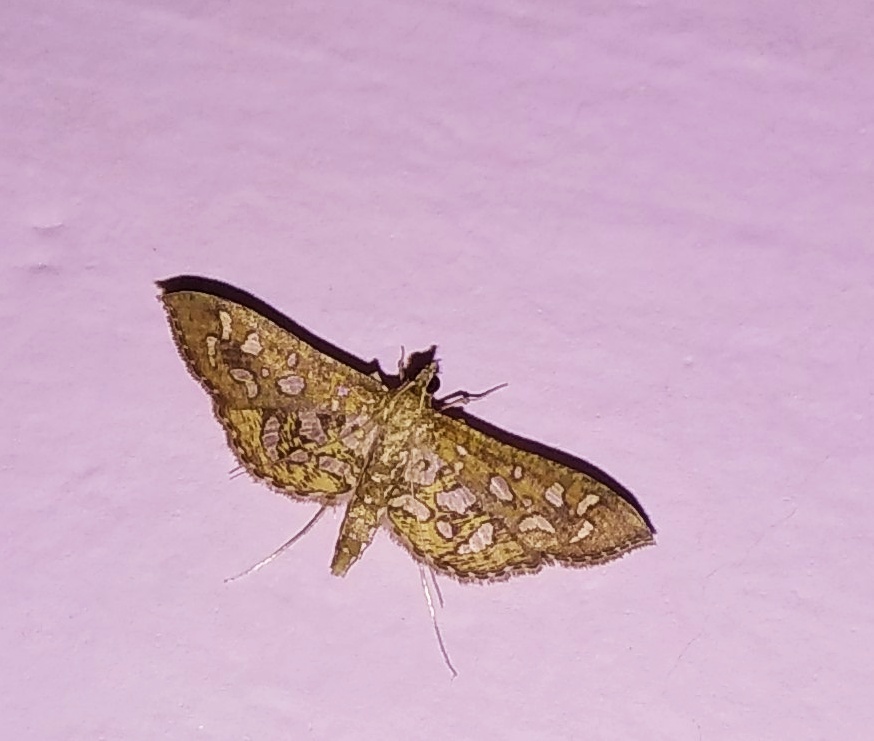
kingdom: Animalia
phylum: Arthropoda
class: Insecta
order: Lepidoptera
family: Crambidae
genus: Nausinoe
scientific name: Nausinoe geometralis
